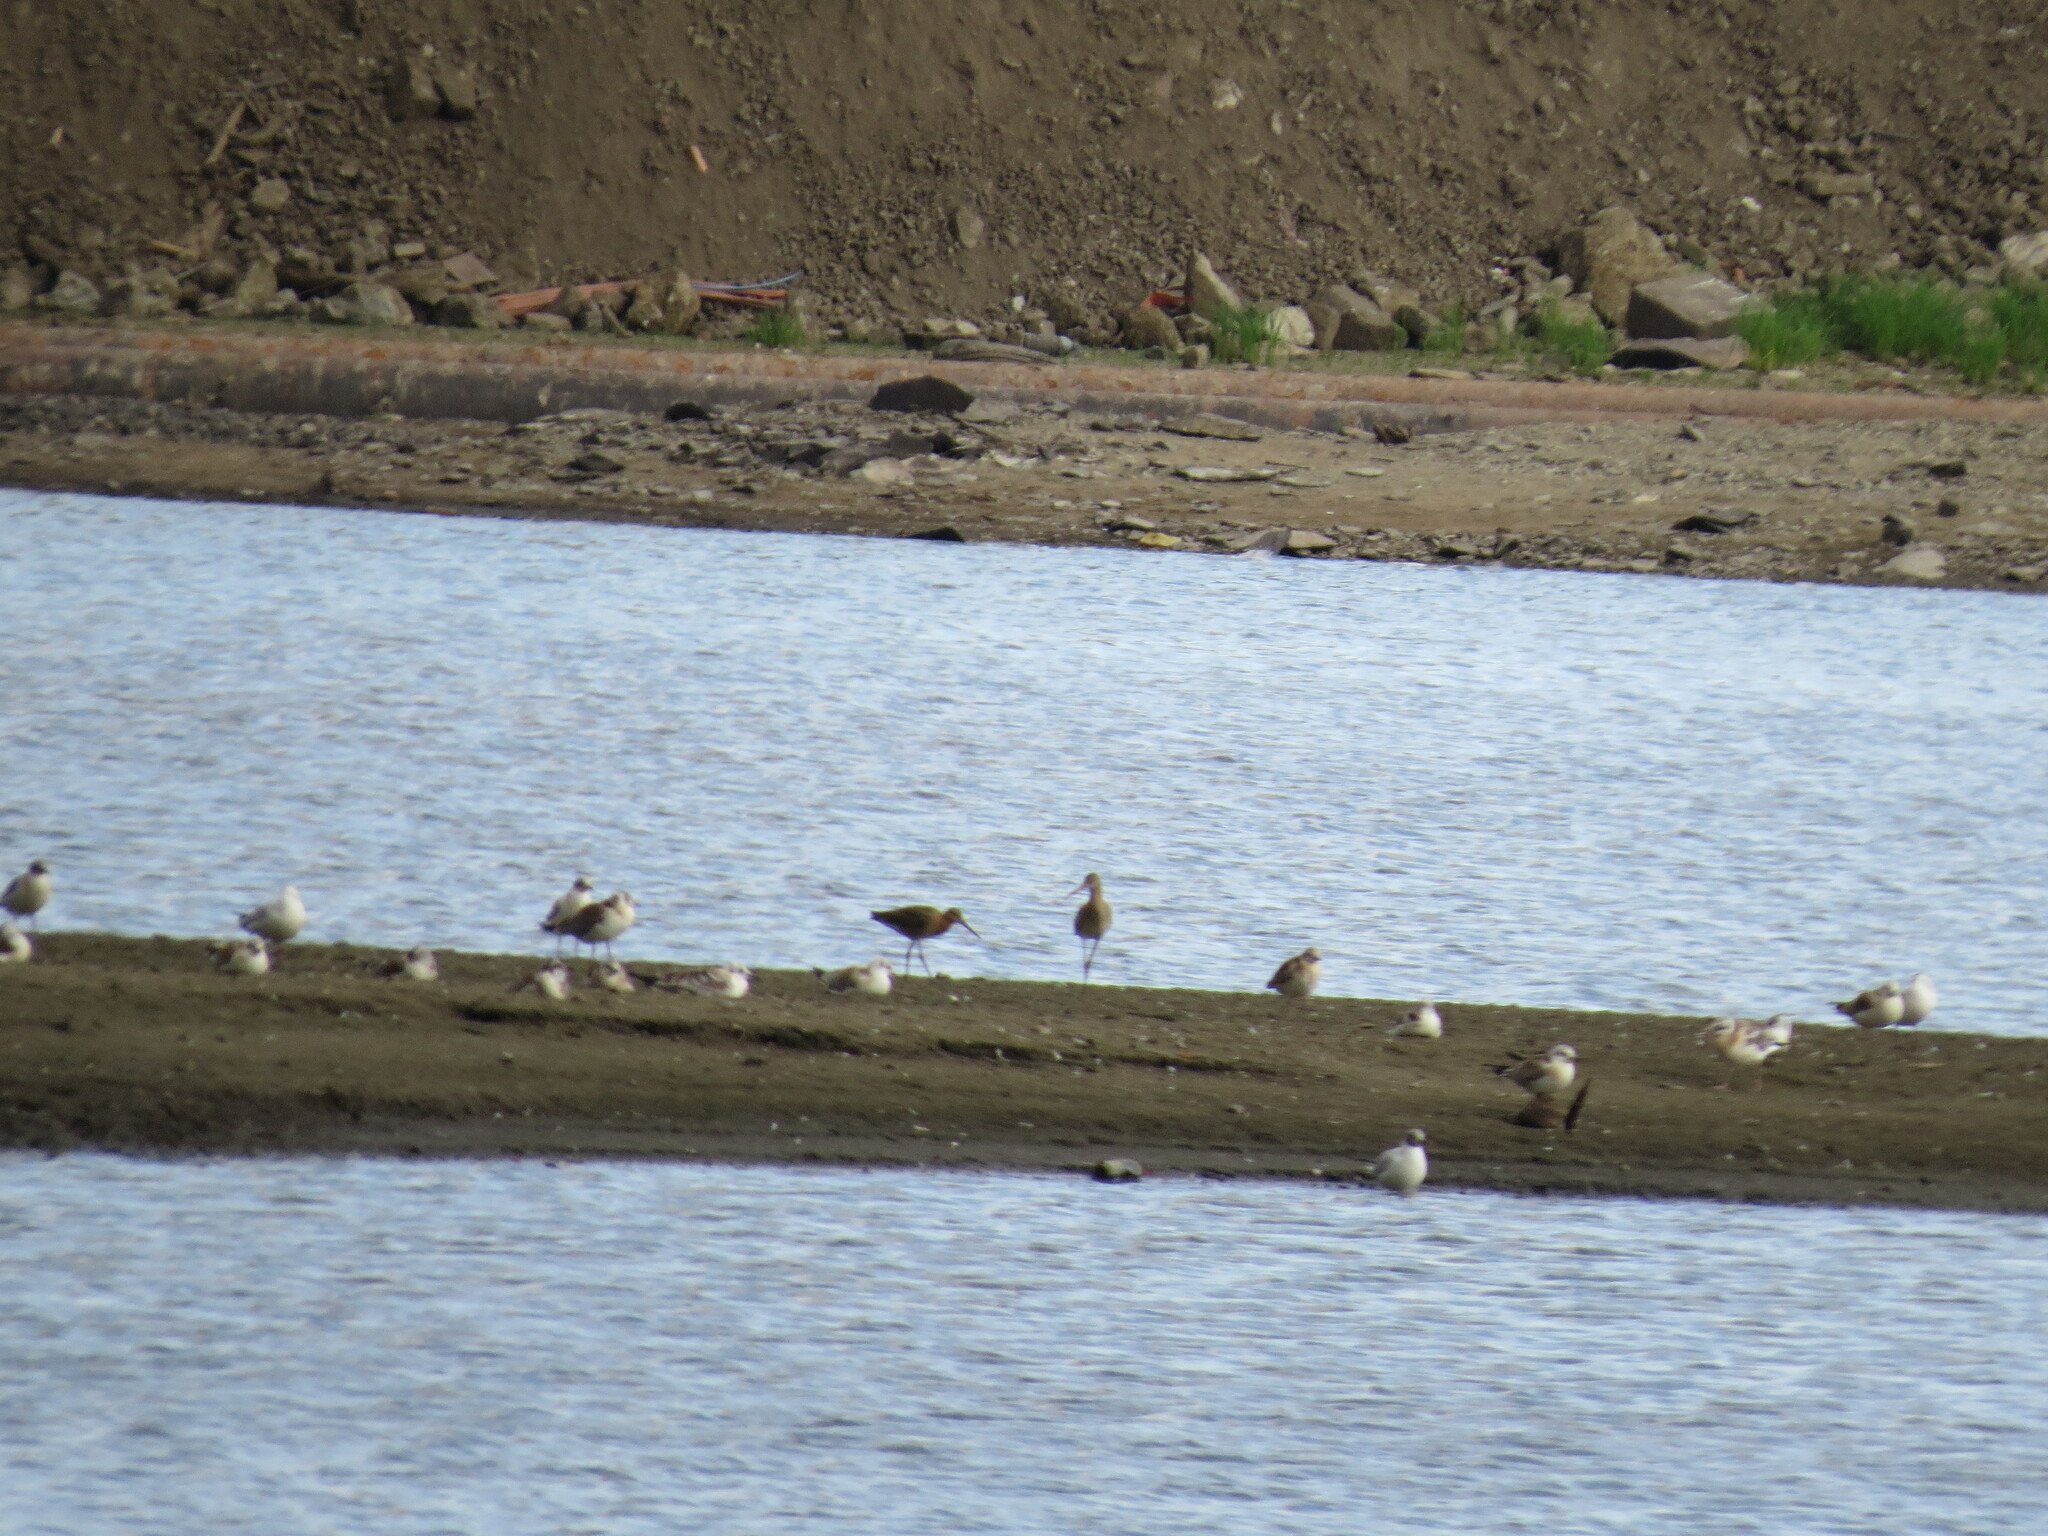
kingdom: Animalia
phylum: Chordata
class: Aves
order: Charadriiformes
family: Scolopacidae
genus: Limosa
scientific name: Limosa limosa
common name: Black-tailed godwit
